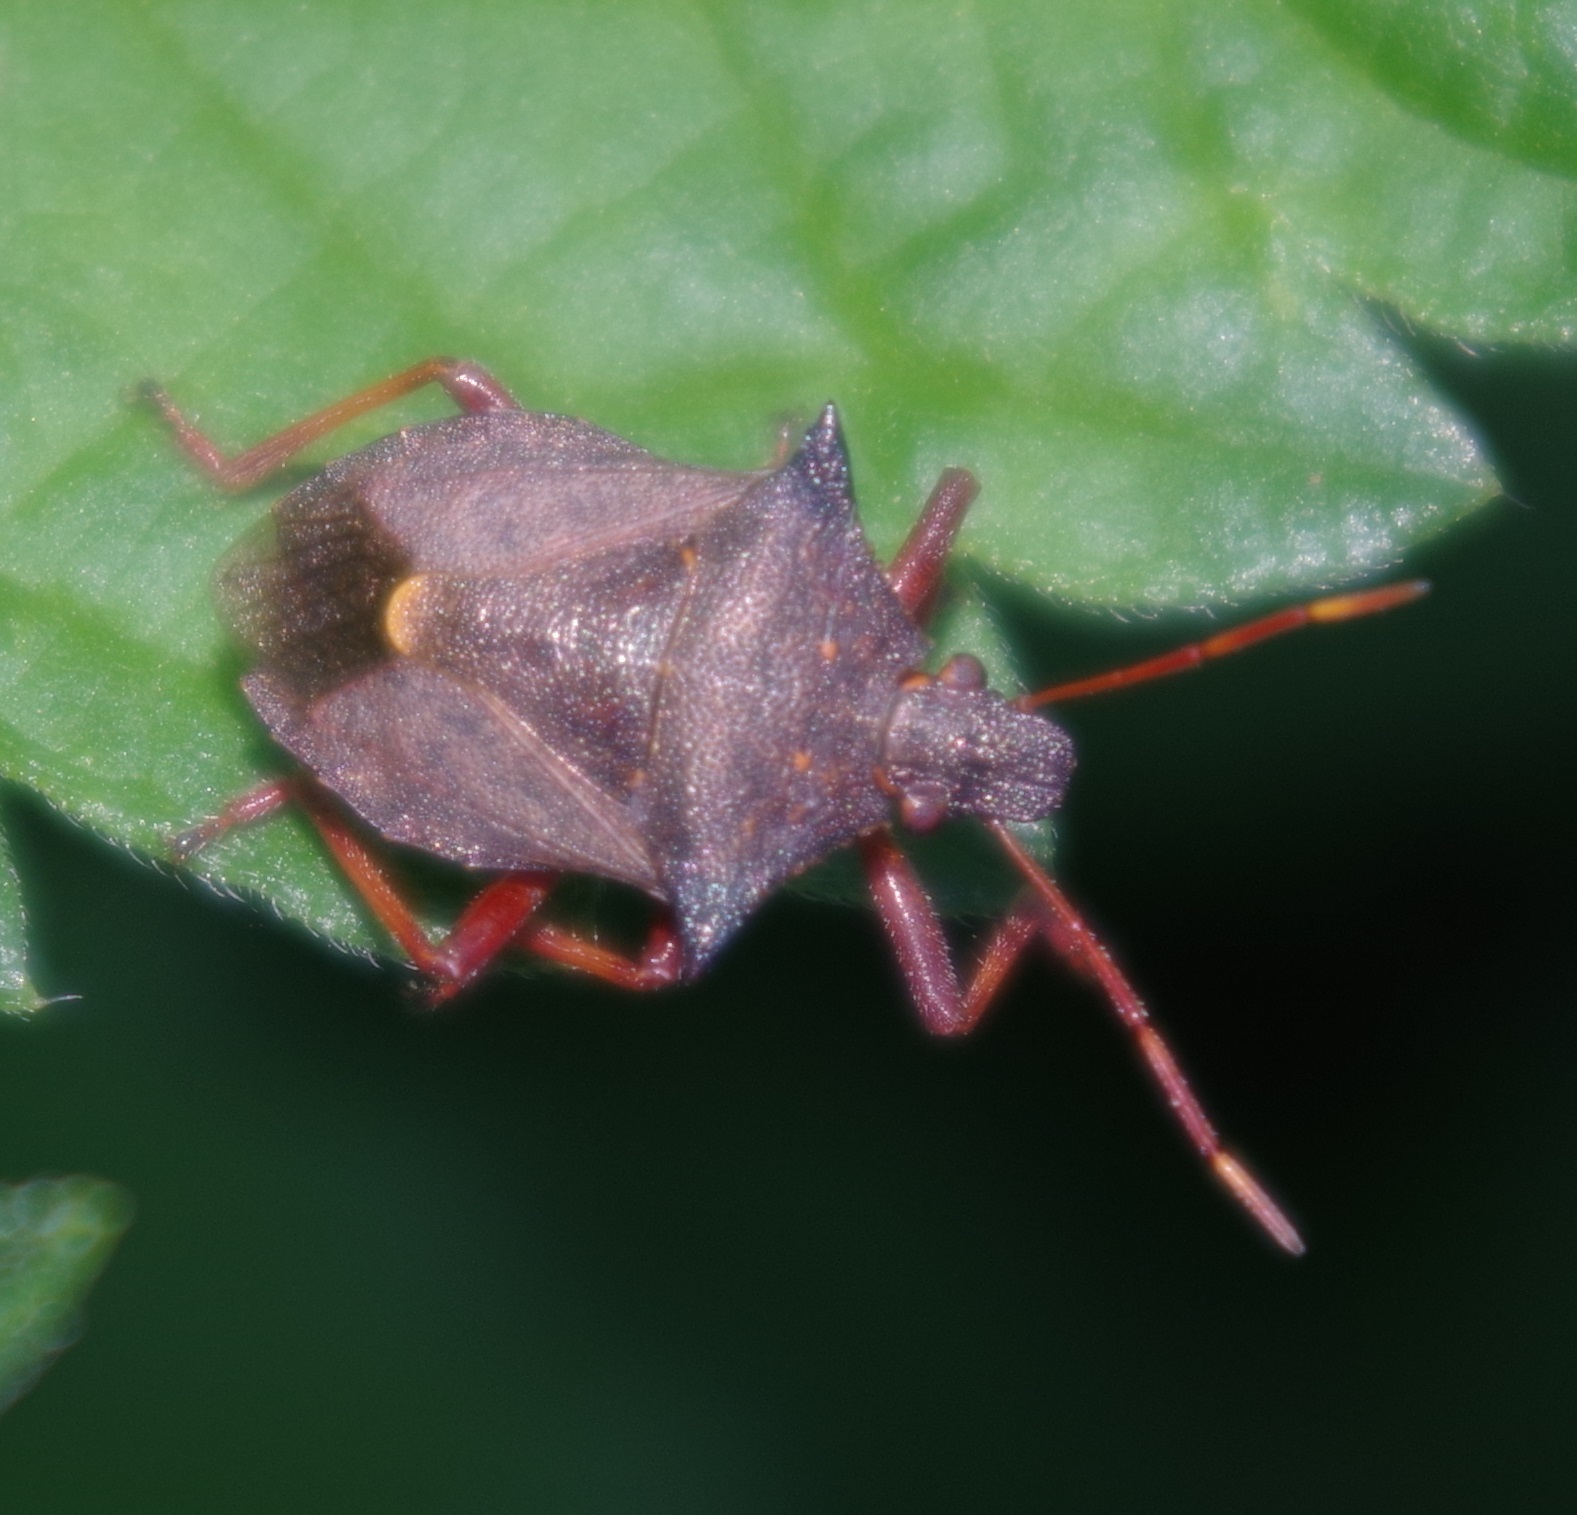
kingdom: Animalia
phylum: Arthropoda
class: Insecta
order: Hemiptera
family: Pentatomidae
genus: Picromerus
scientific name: Picromerus bidens
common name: Spiked shieldbug
